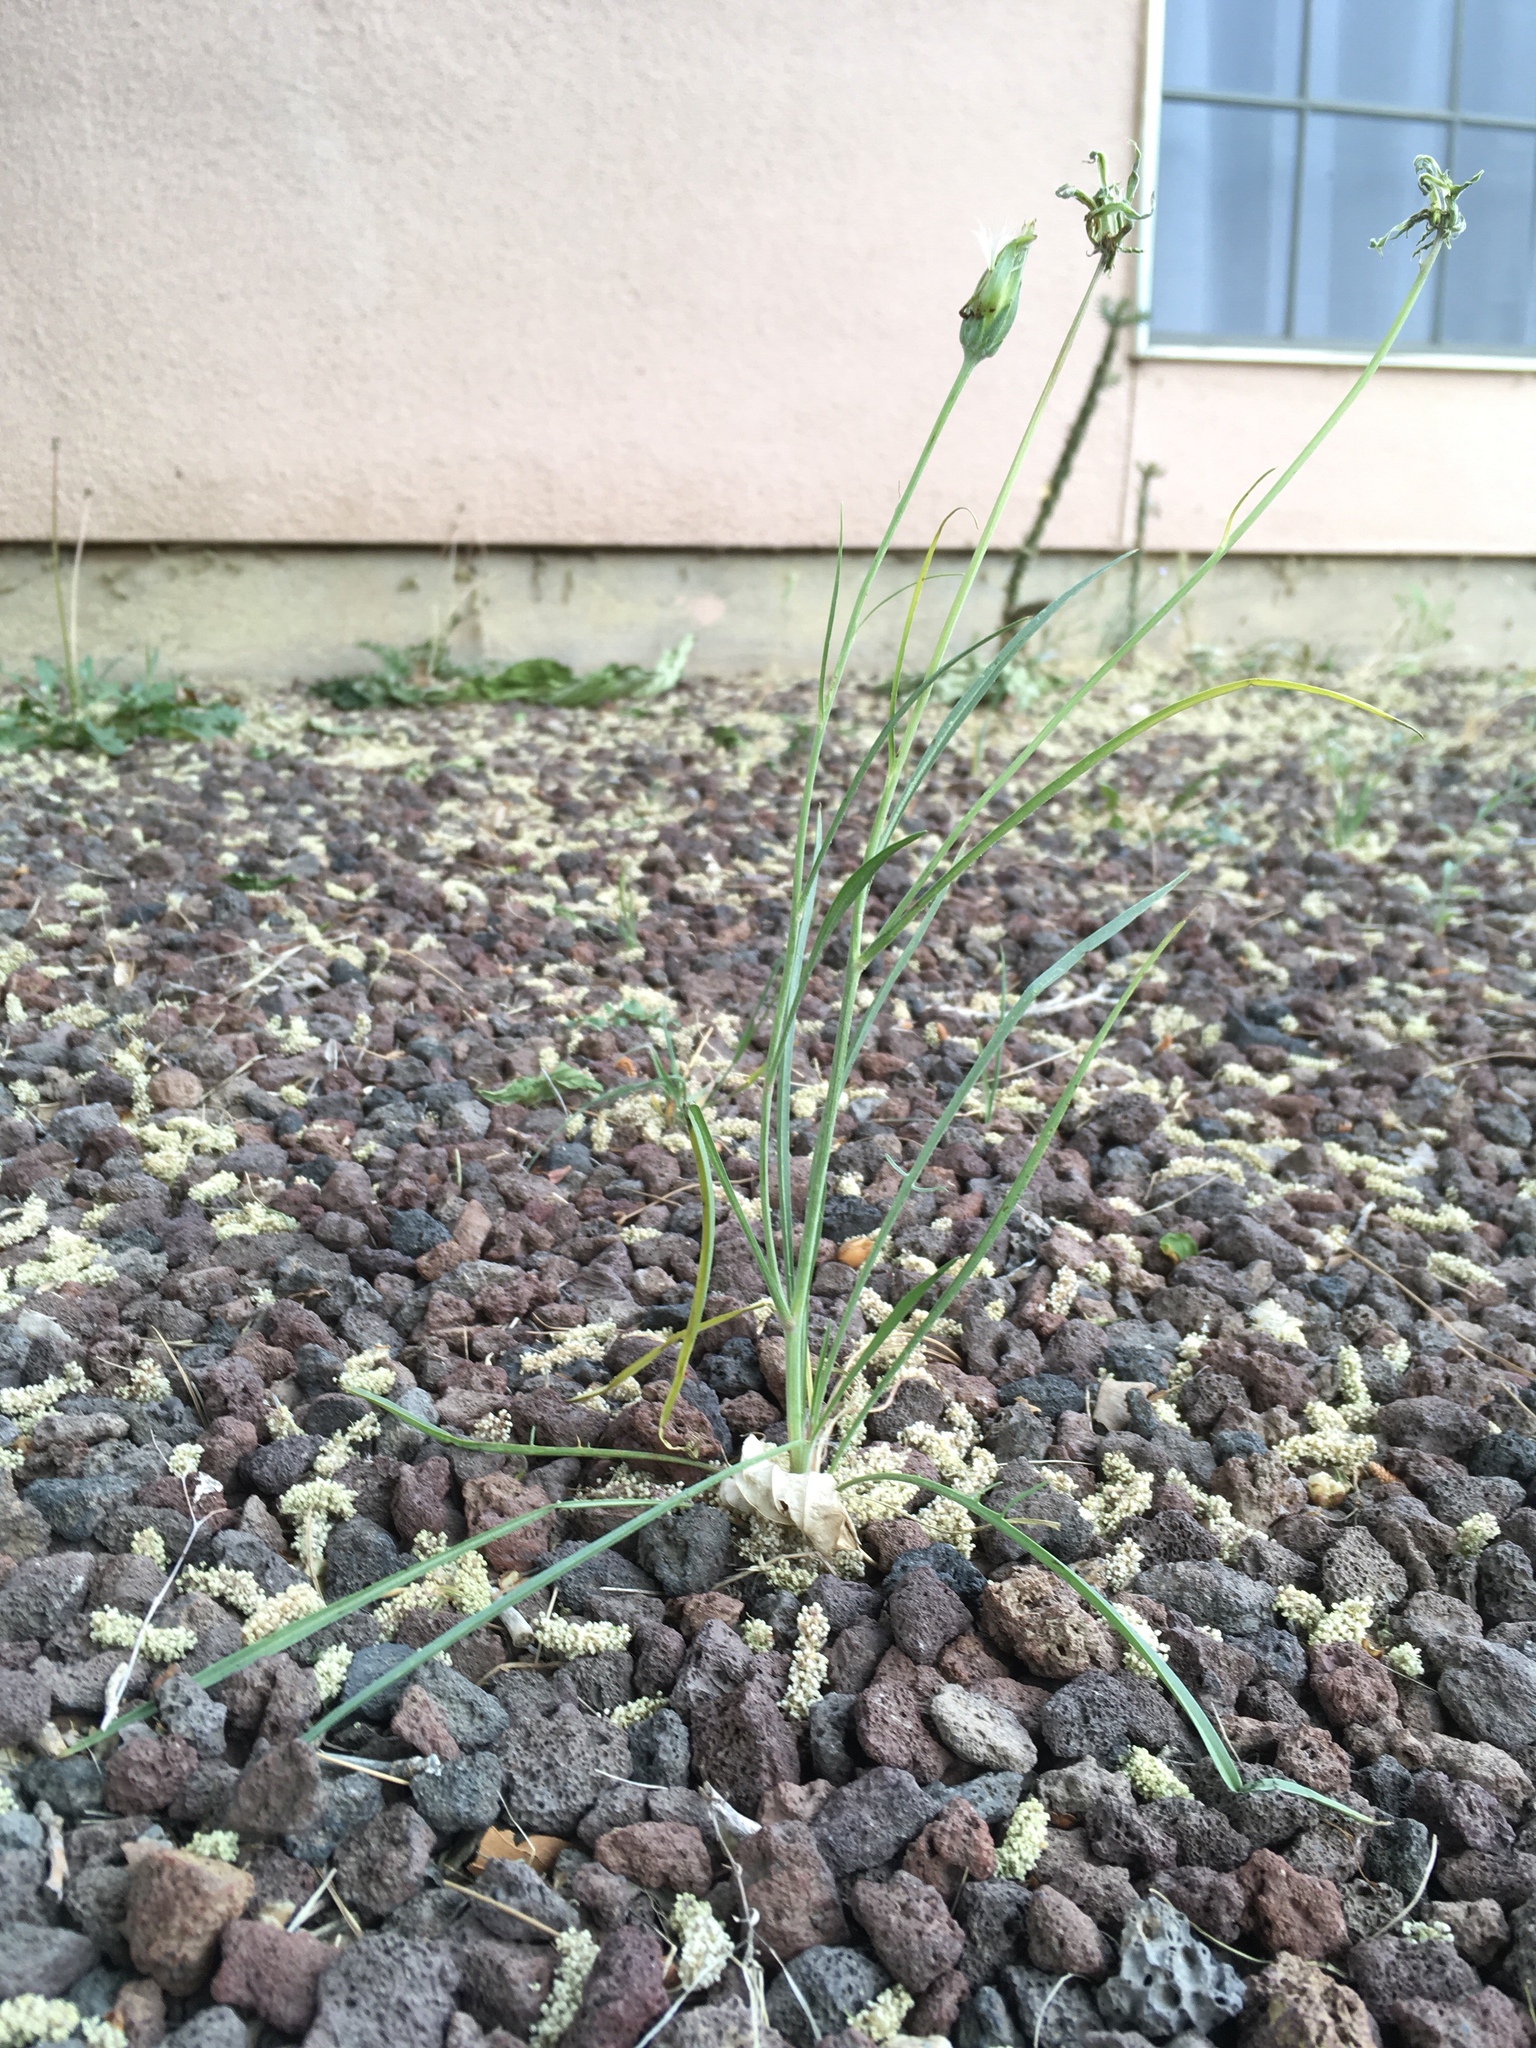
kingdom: Plantae
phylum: Tracheophyta
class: Magnoliopsida
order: Asterales
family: Asteraceae
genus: Scorzonera
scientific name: Scorzonera laciniata
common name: Cutleaf vipergrass
